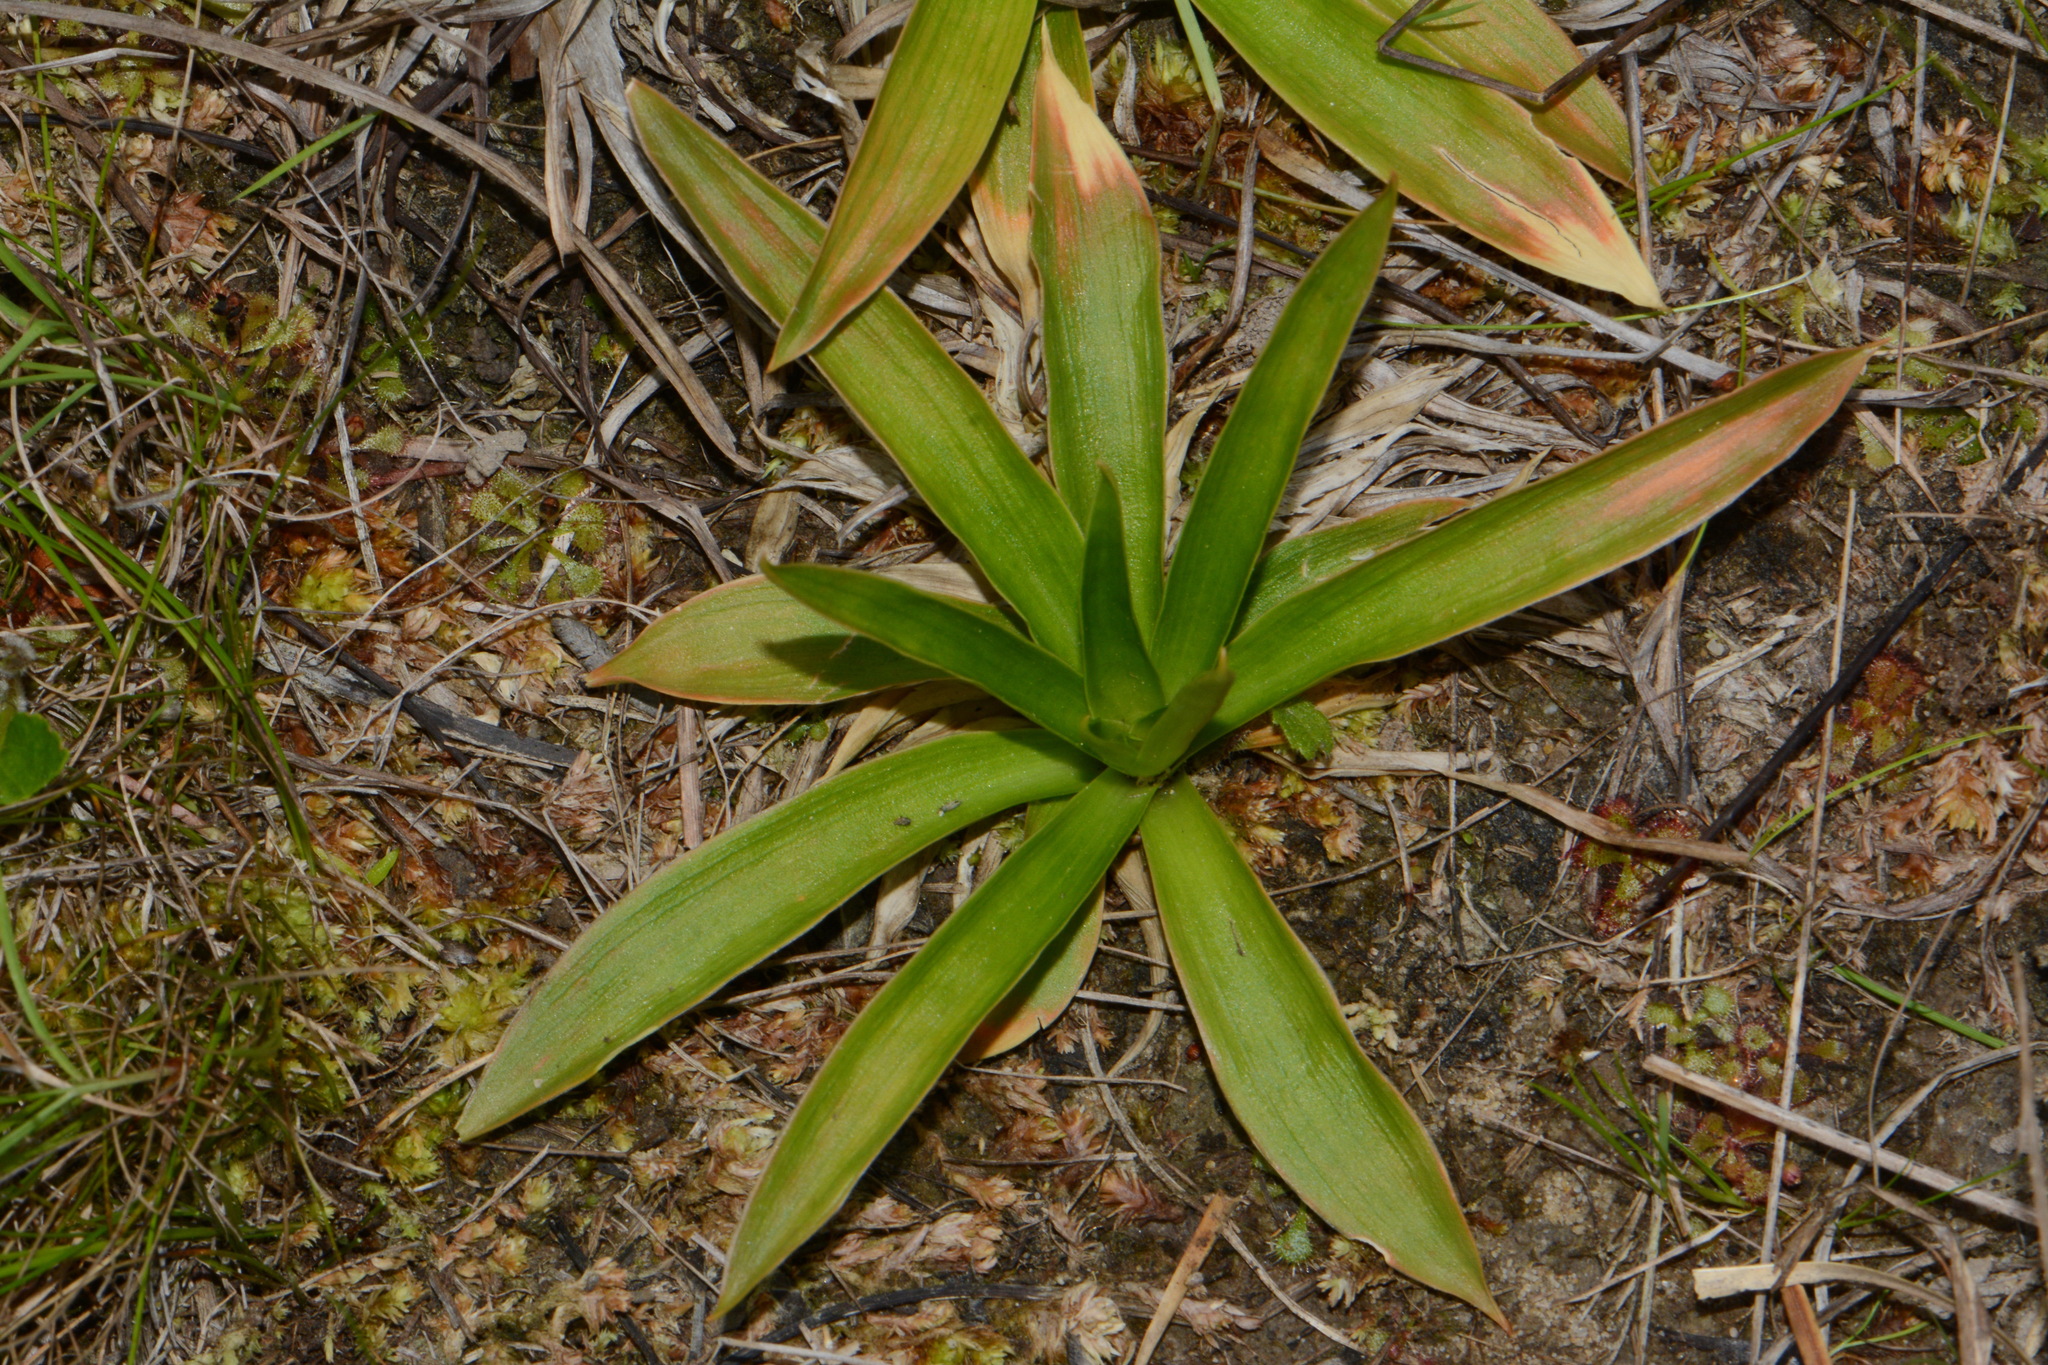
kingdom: Plantae
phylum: Tracheophyta
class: Liliopsida
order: Dioscoreales
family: Nartheciaceae
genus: Aletris
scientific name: Aletris farinosa
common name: Colicroot
